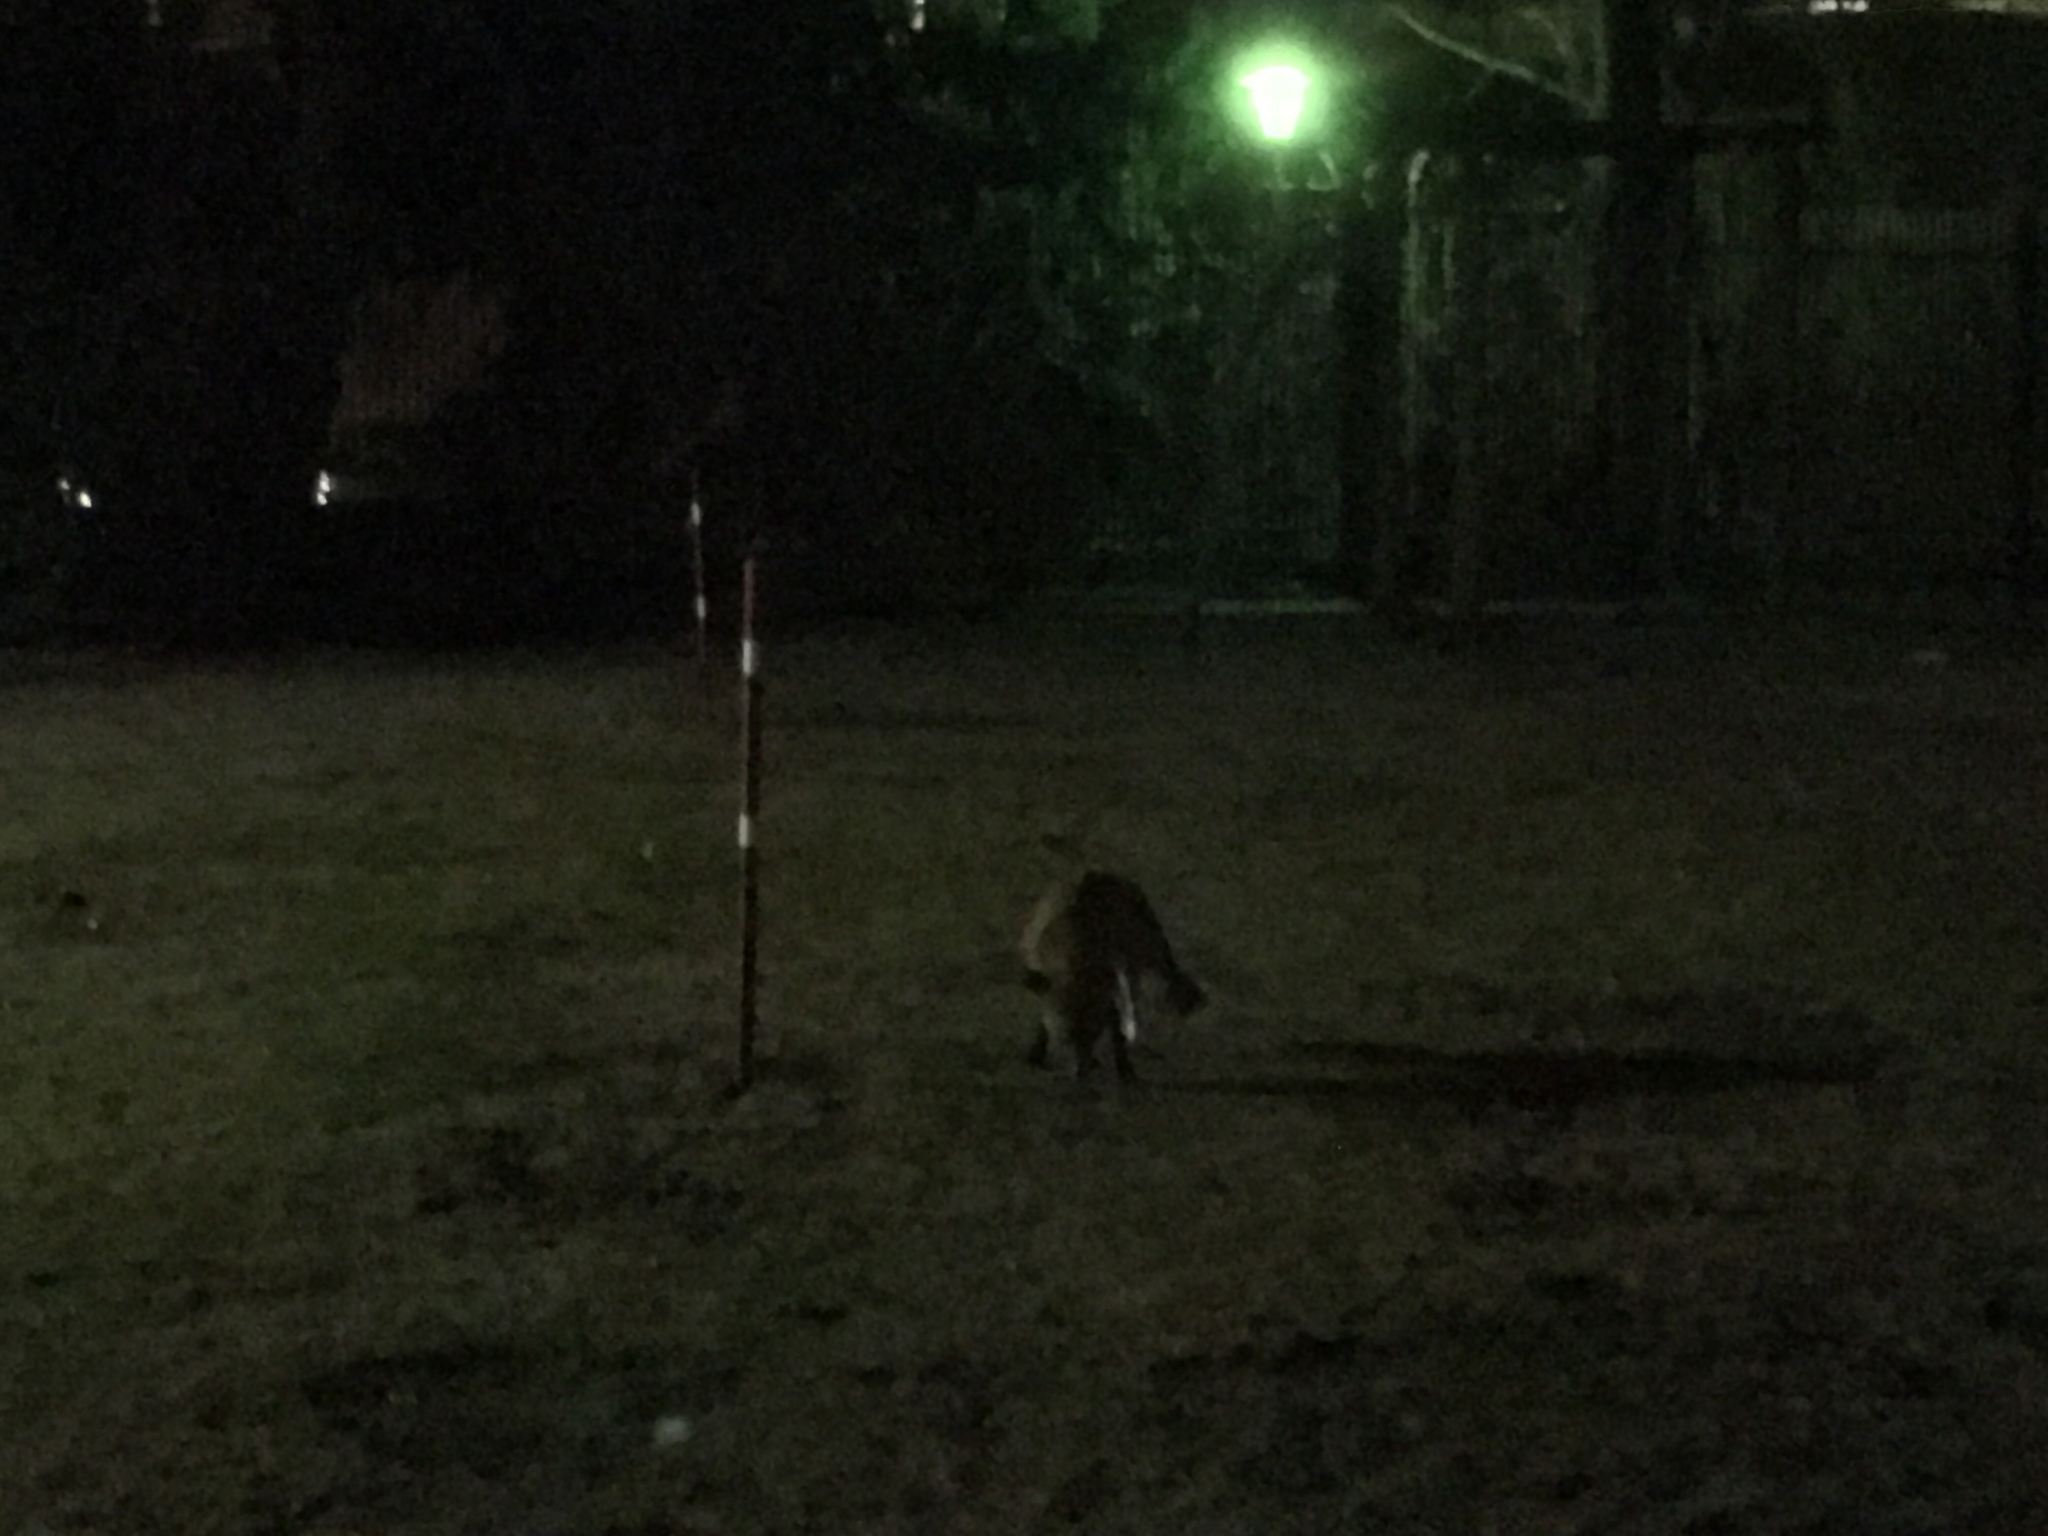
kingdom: Animalia
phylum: Chordata
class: Mammalia
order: Carnivora
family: Canidae
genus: Vulpes
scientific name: Vulpes vulpes
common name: Red fox
